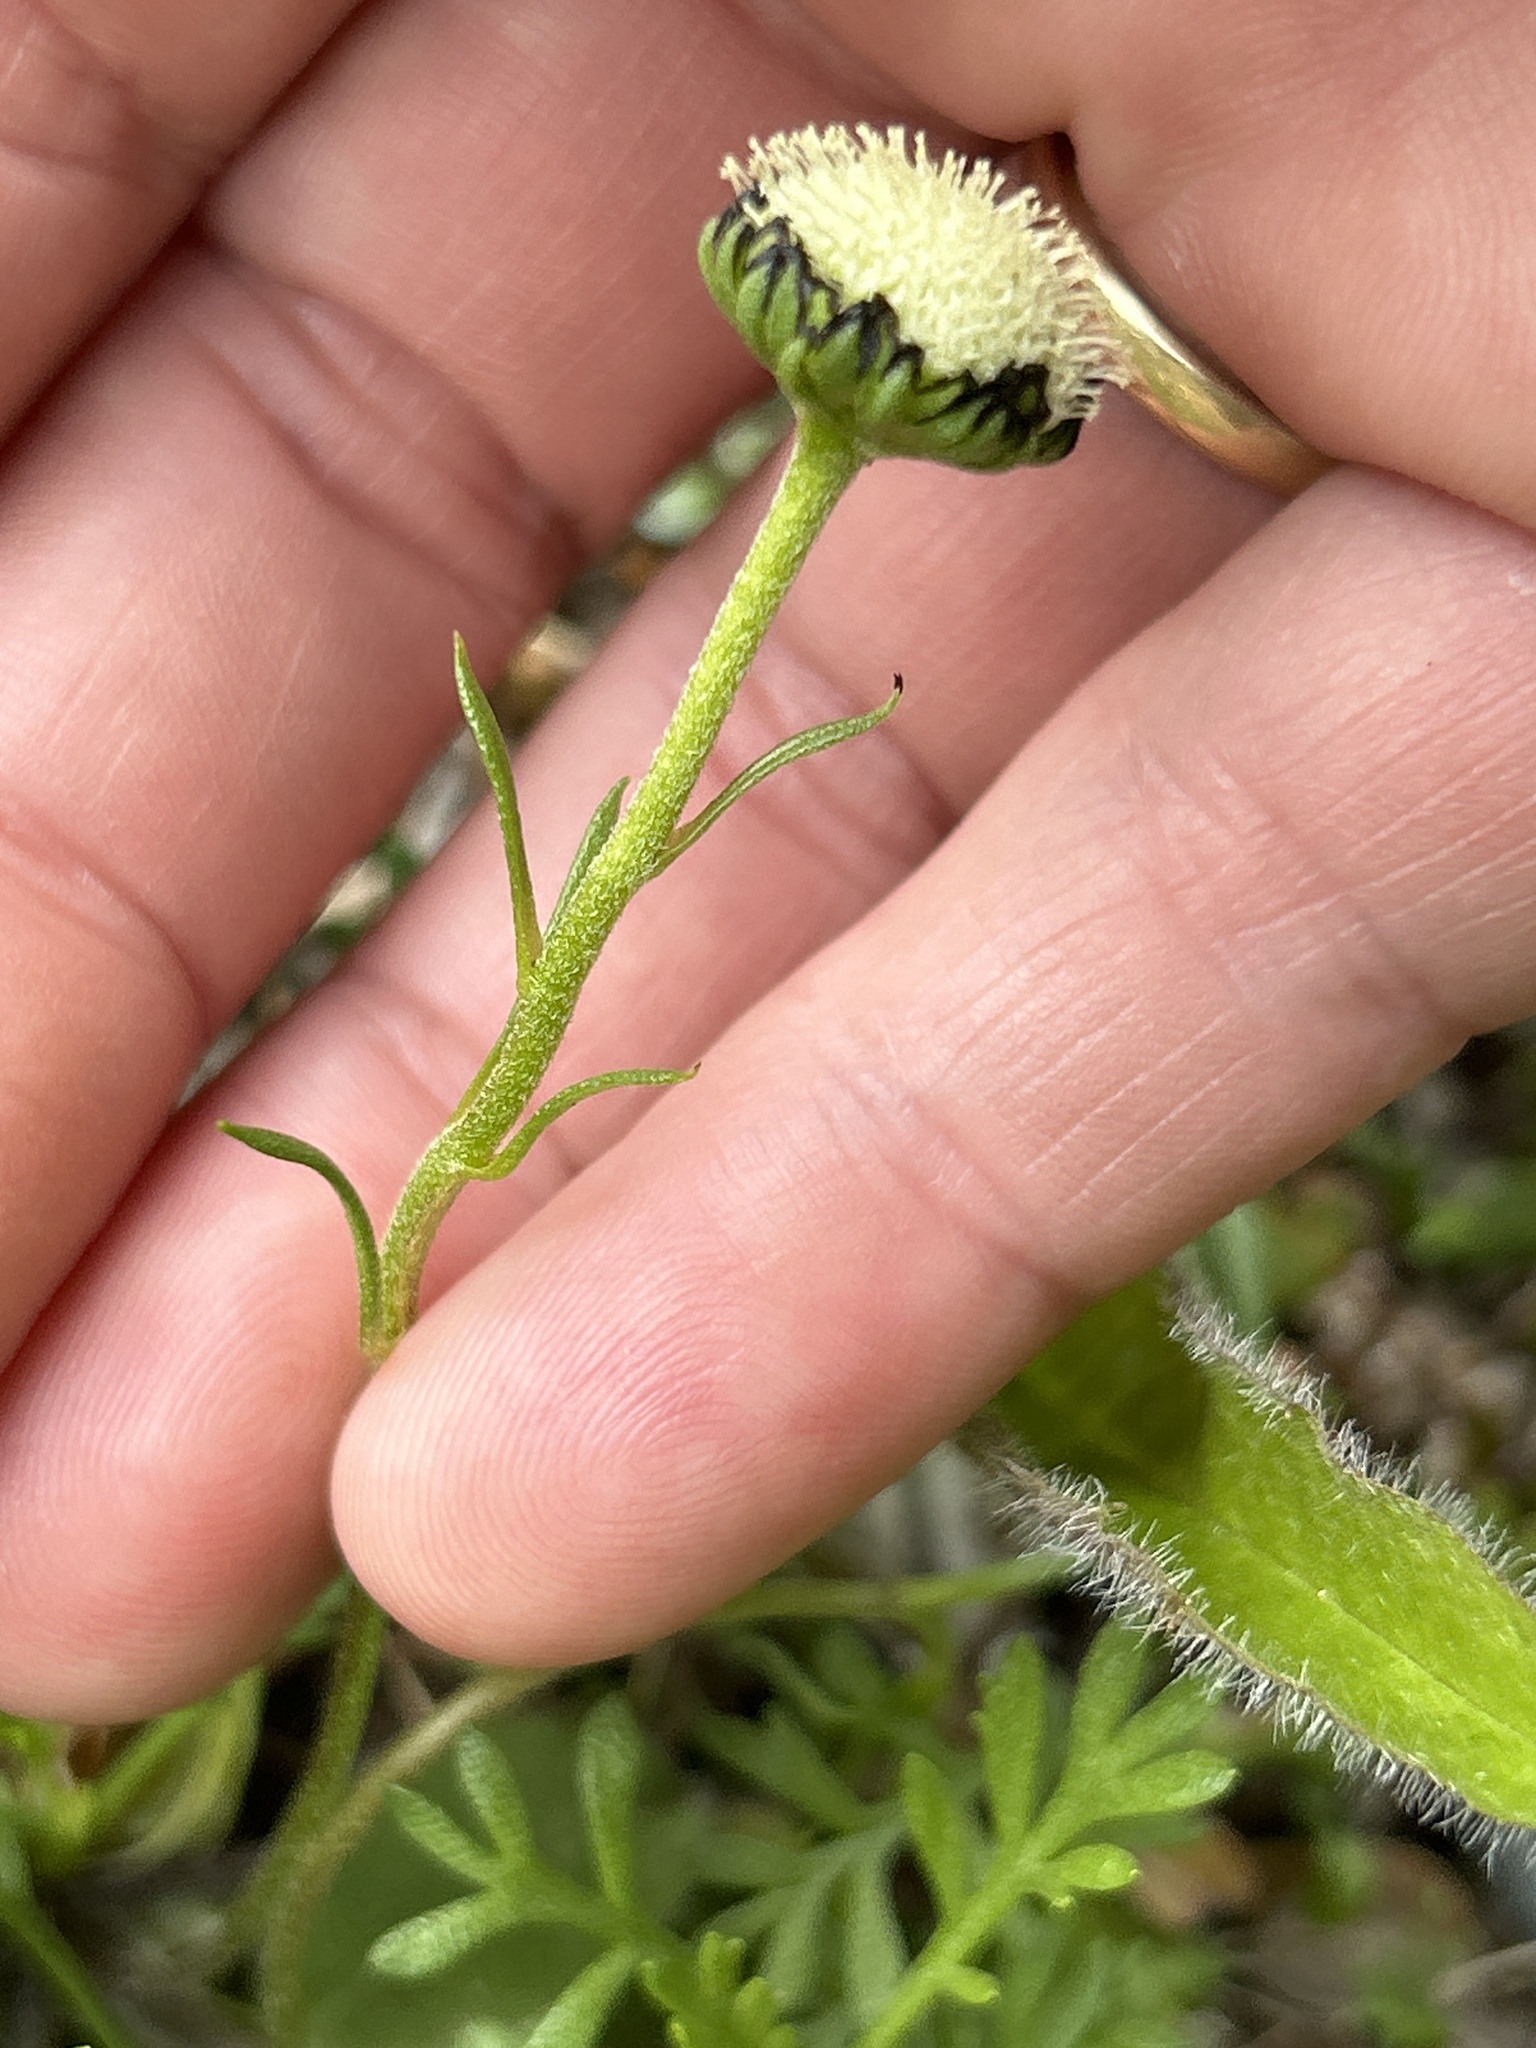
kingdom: Plantae
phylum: Tracheophyta
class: Magnoliopsida
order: Asterales
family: Asteraceae
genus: Leptinella
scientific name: Leptinella pyrethrifolia
